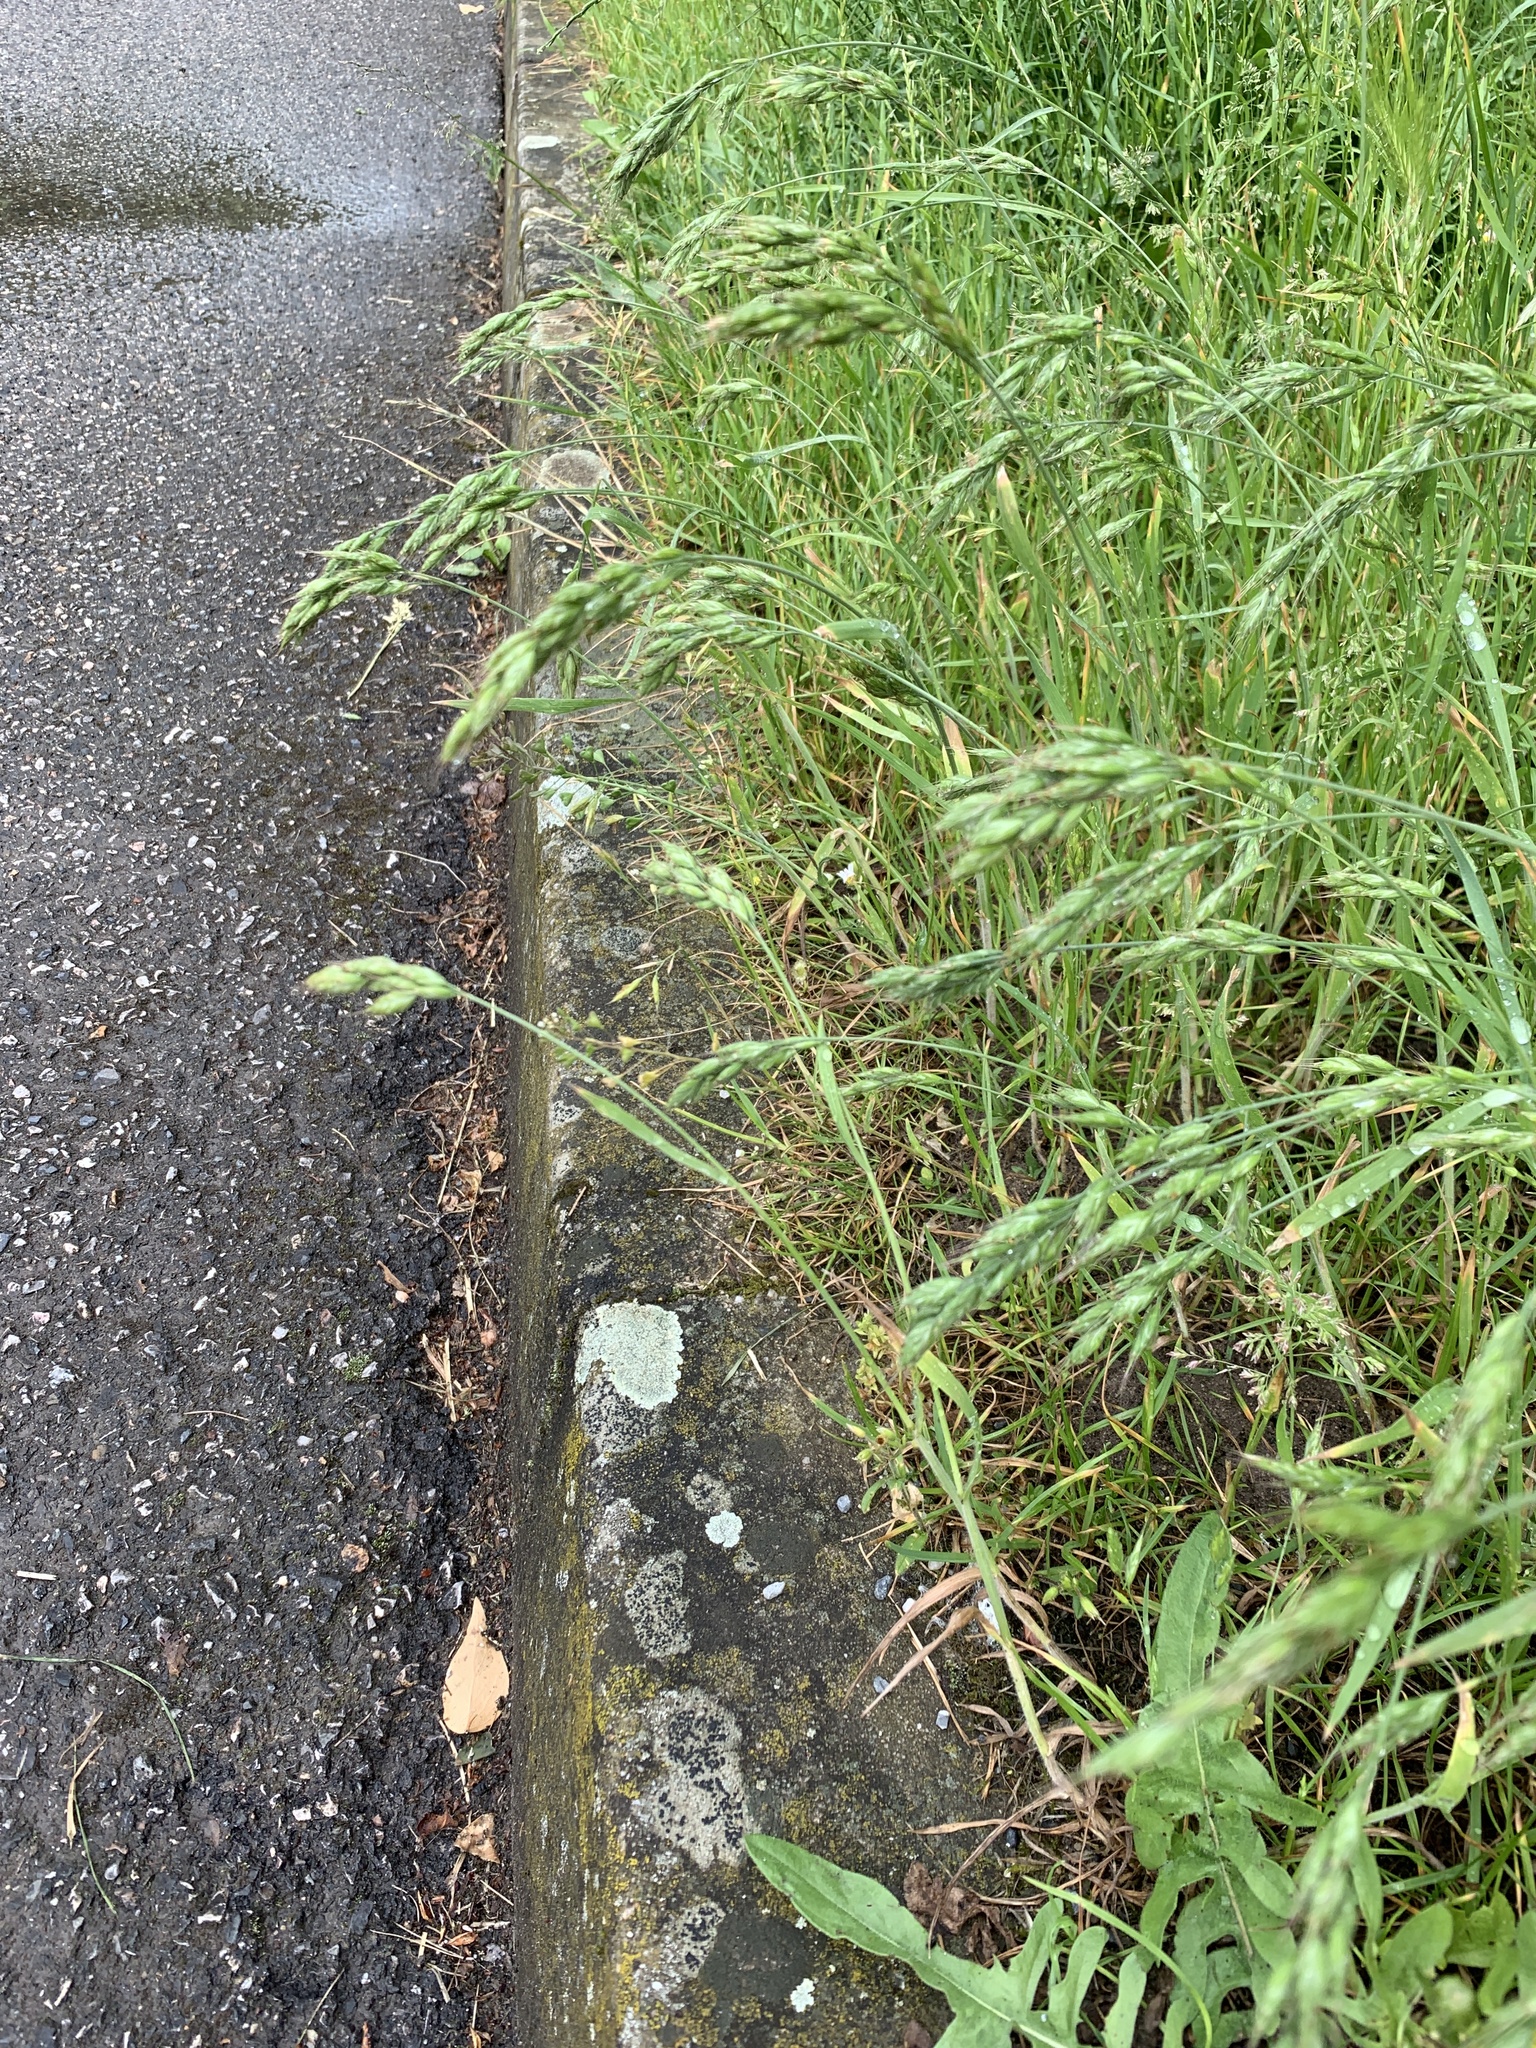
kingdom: Plantae
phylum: Tracheophyta
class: Liliopsida
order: Poales
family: Poaceae
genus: Bromus
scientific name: Bromus hordeaceus
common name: Soft brome
